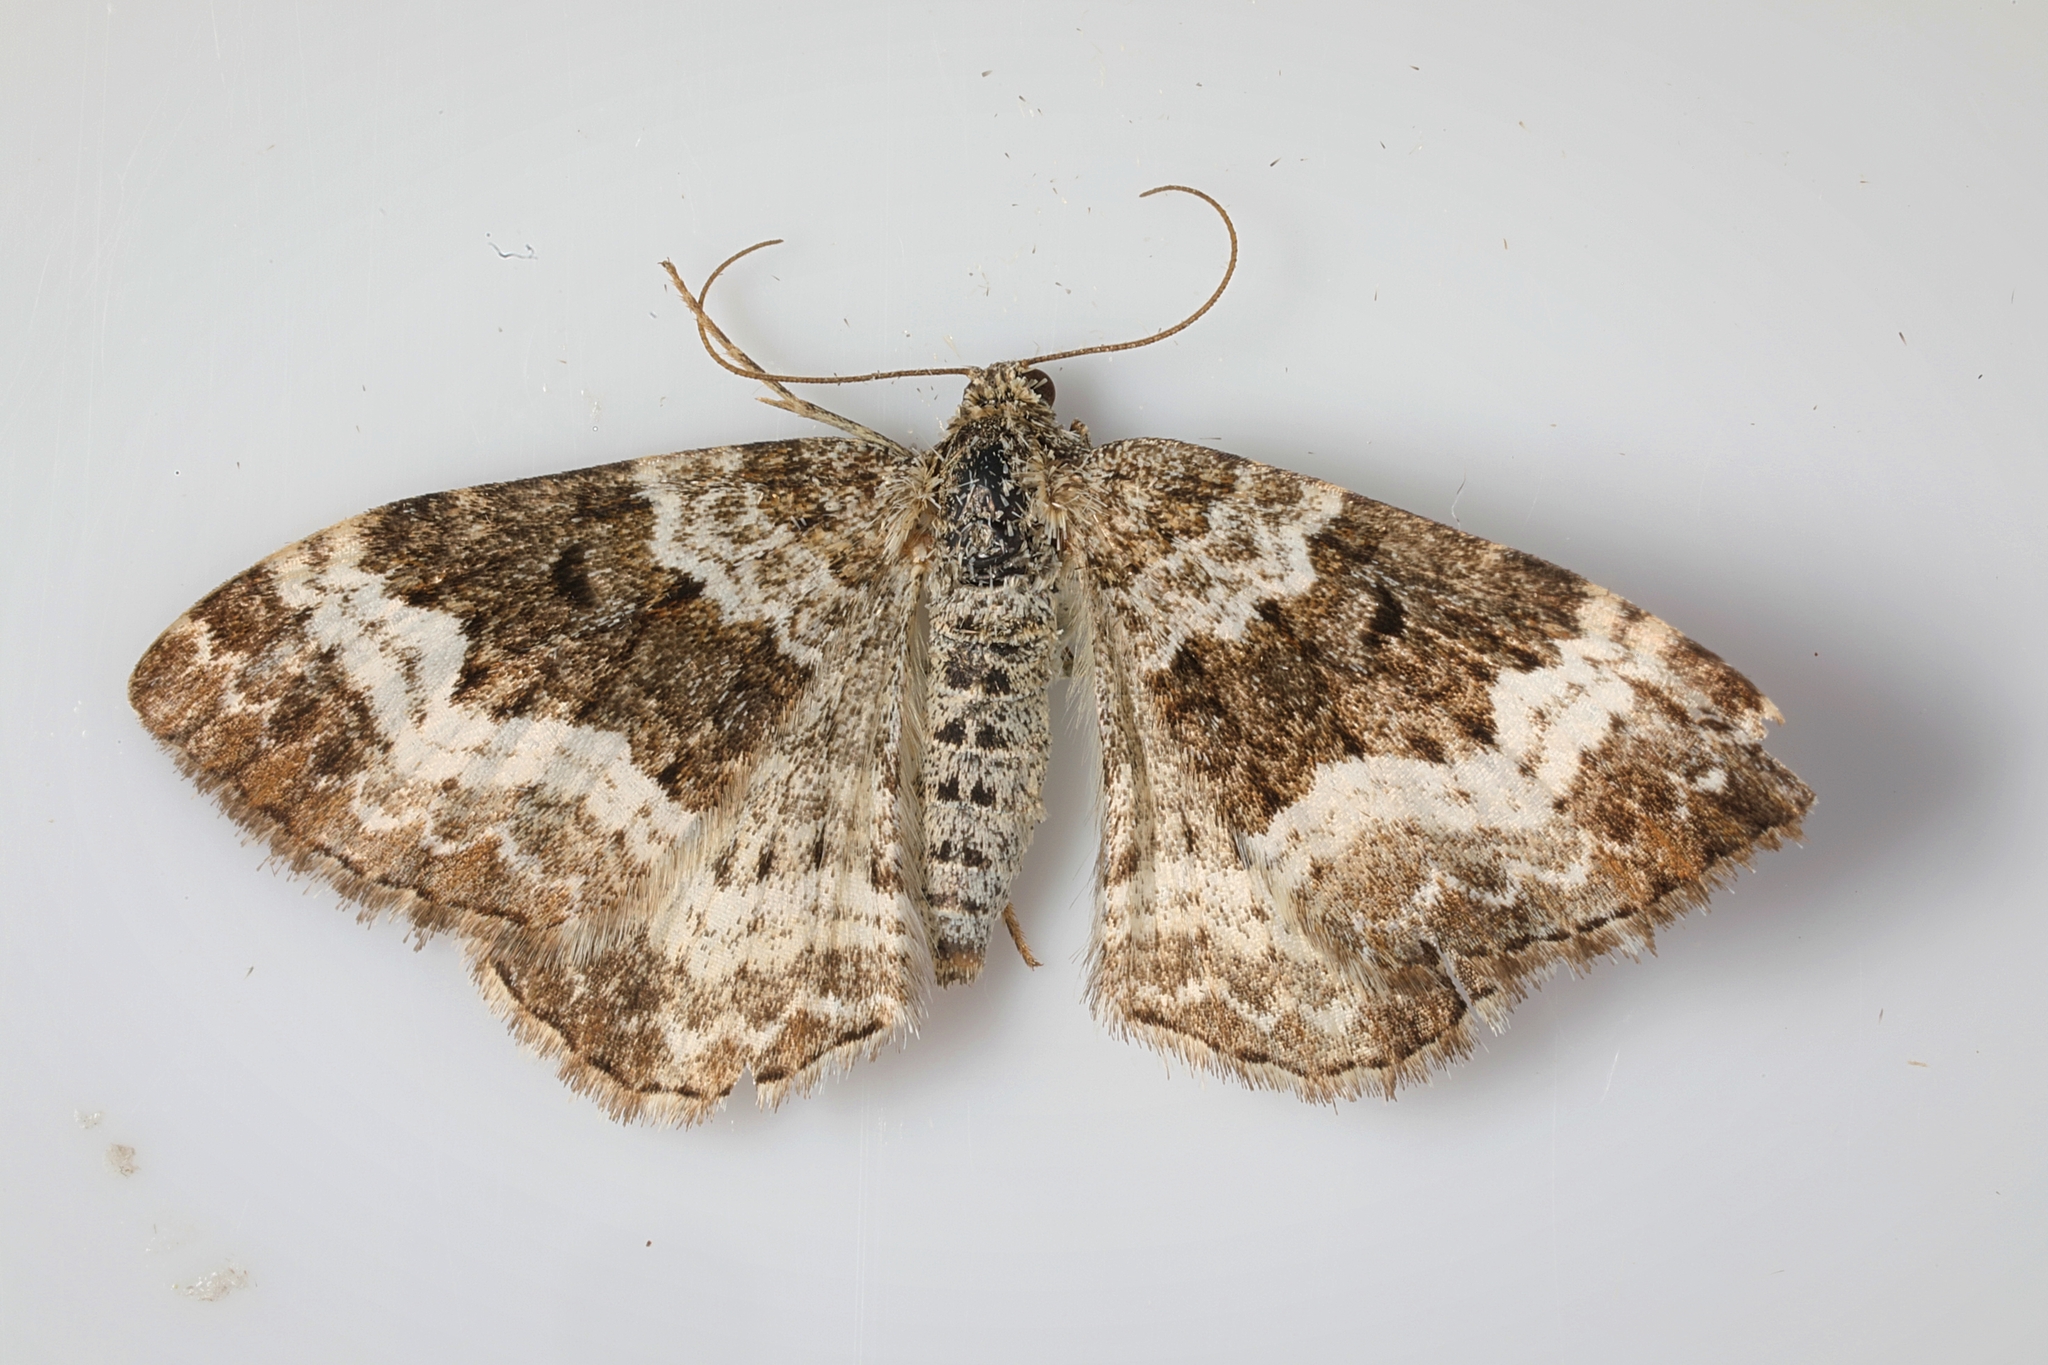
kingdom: Animalia
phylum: Arthropoda
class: Insecta
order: Lepidoptera
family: Geometridae
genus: Epirrhoe
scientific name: Epirrhoe alternata
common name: Common carpet
